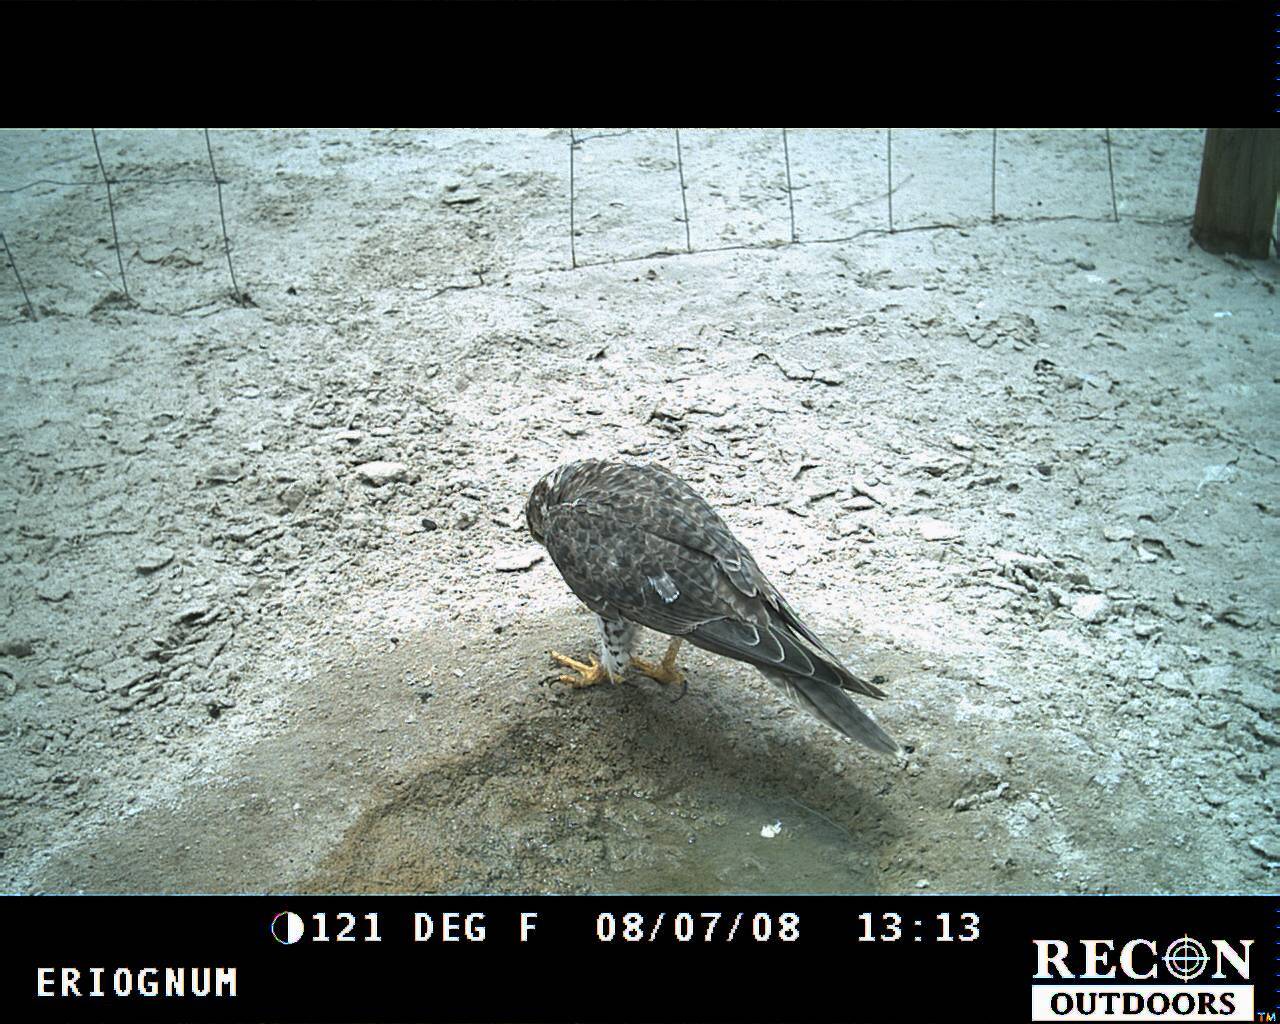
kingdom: Animalia
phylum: Chordata
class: Aves
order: Falconiformes
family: Falconidae
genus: Falco
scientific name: Falco mexicanus
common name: Prairie falcon
